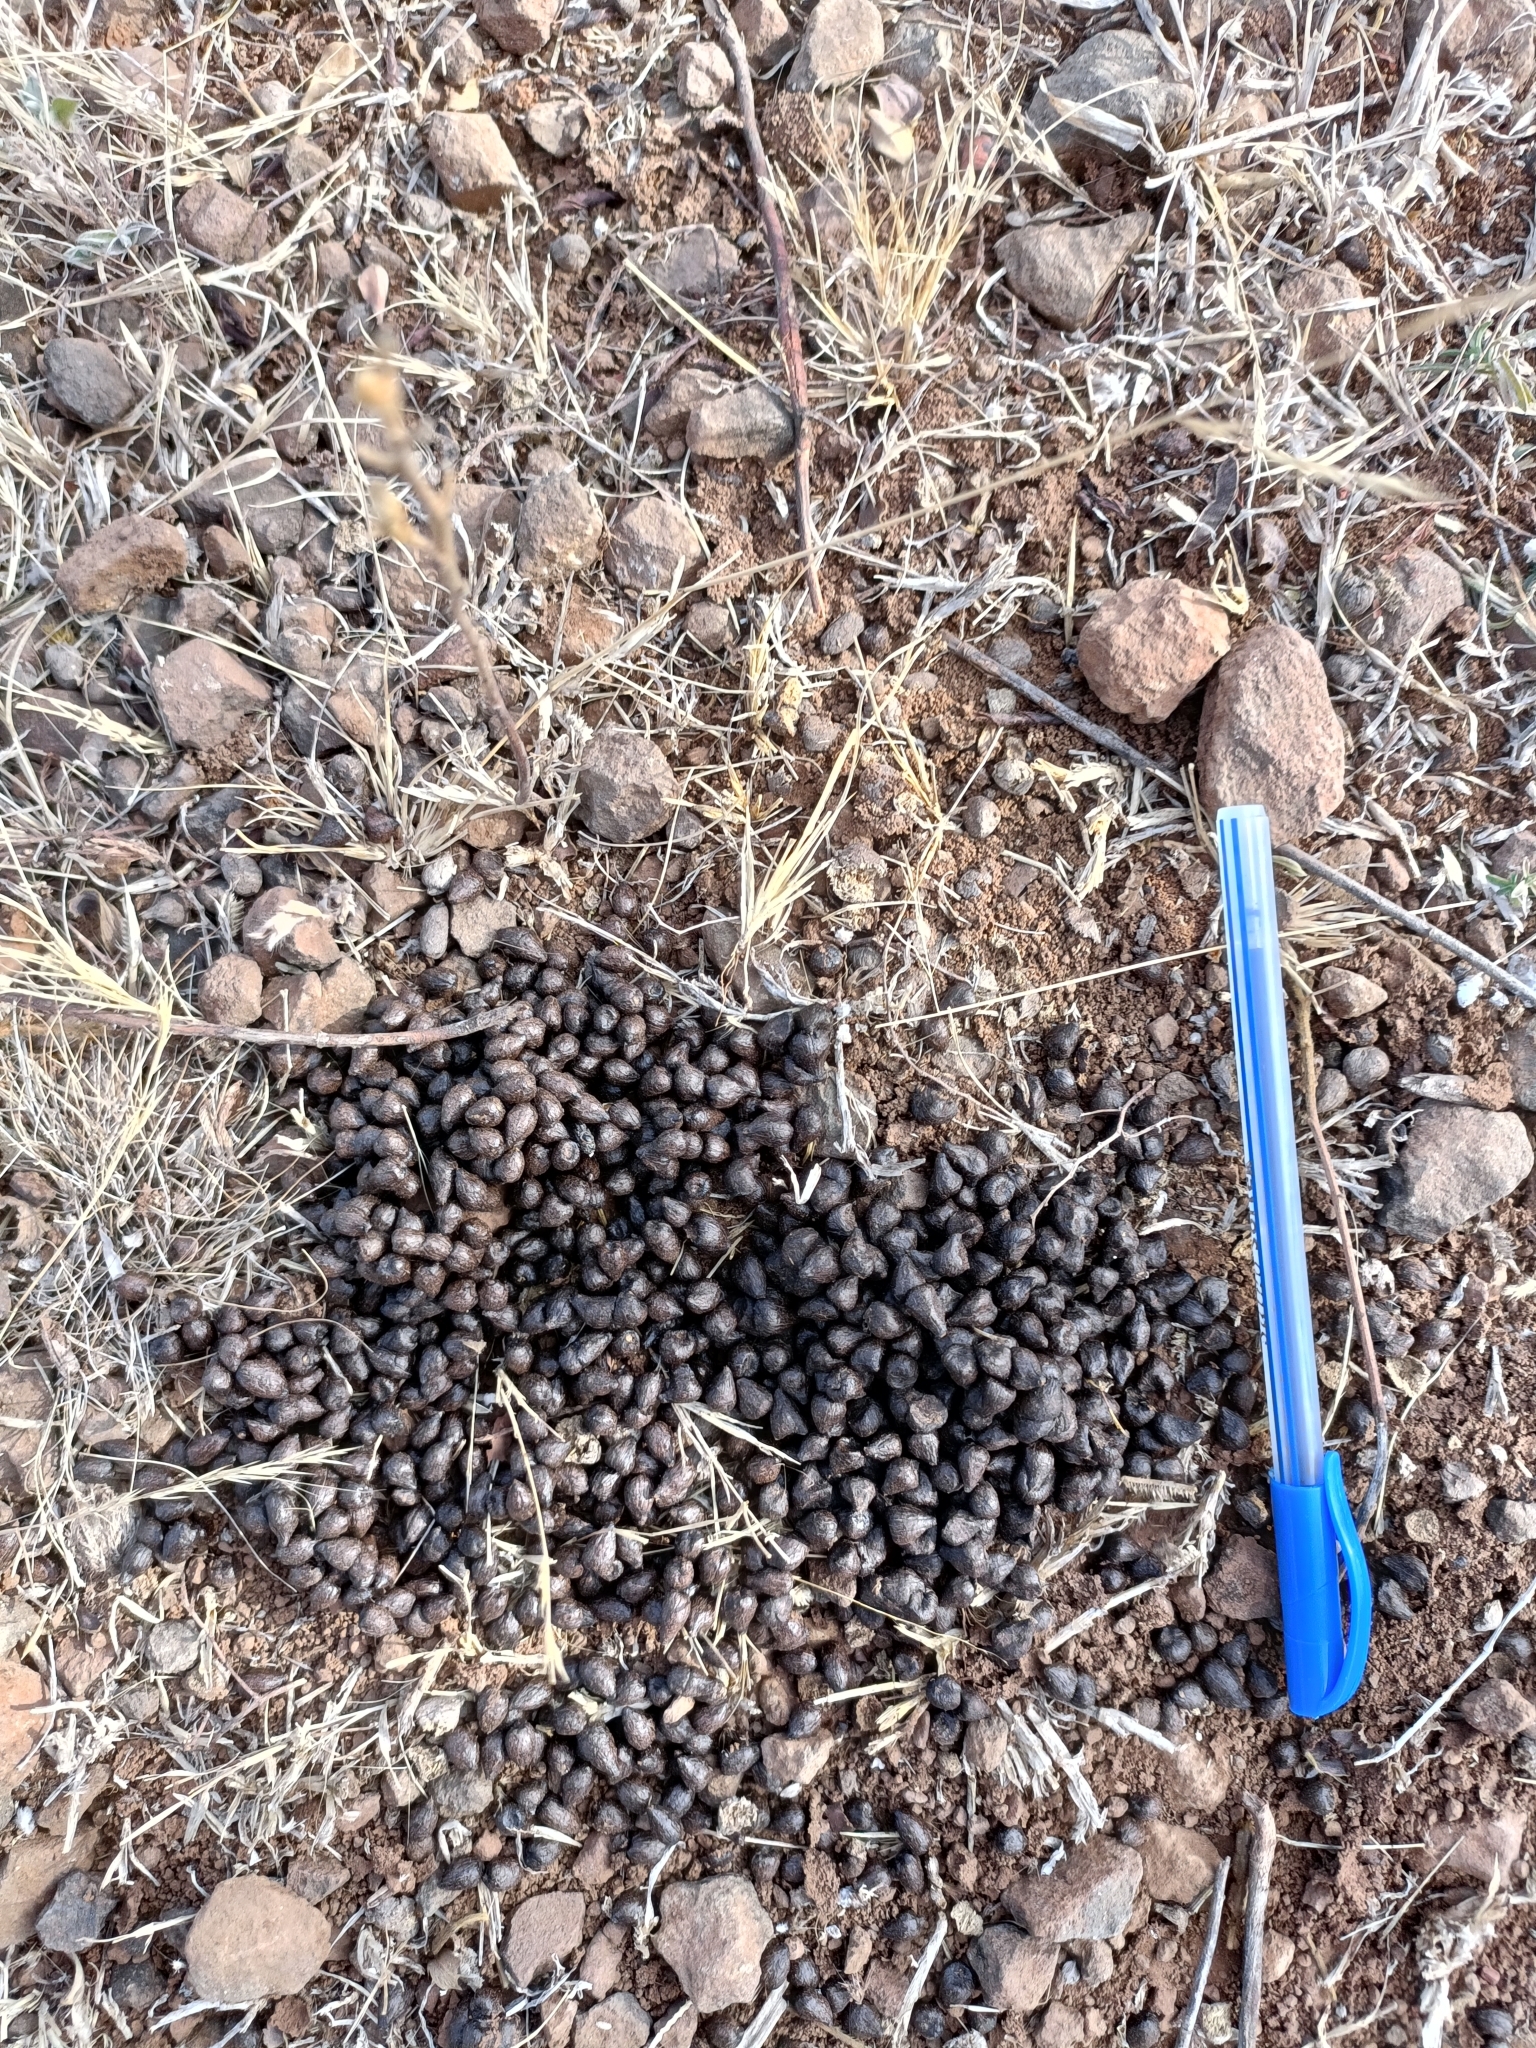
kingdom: Animalia
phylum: Chordata
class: Mammalia
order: Artiodactyla
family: Bovidae
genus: Gazella
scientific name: Gazella bennettii
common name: Indian gazelle
